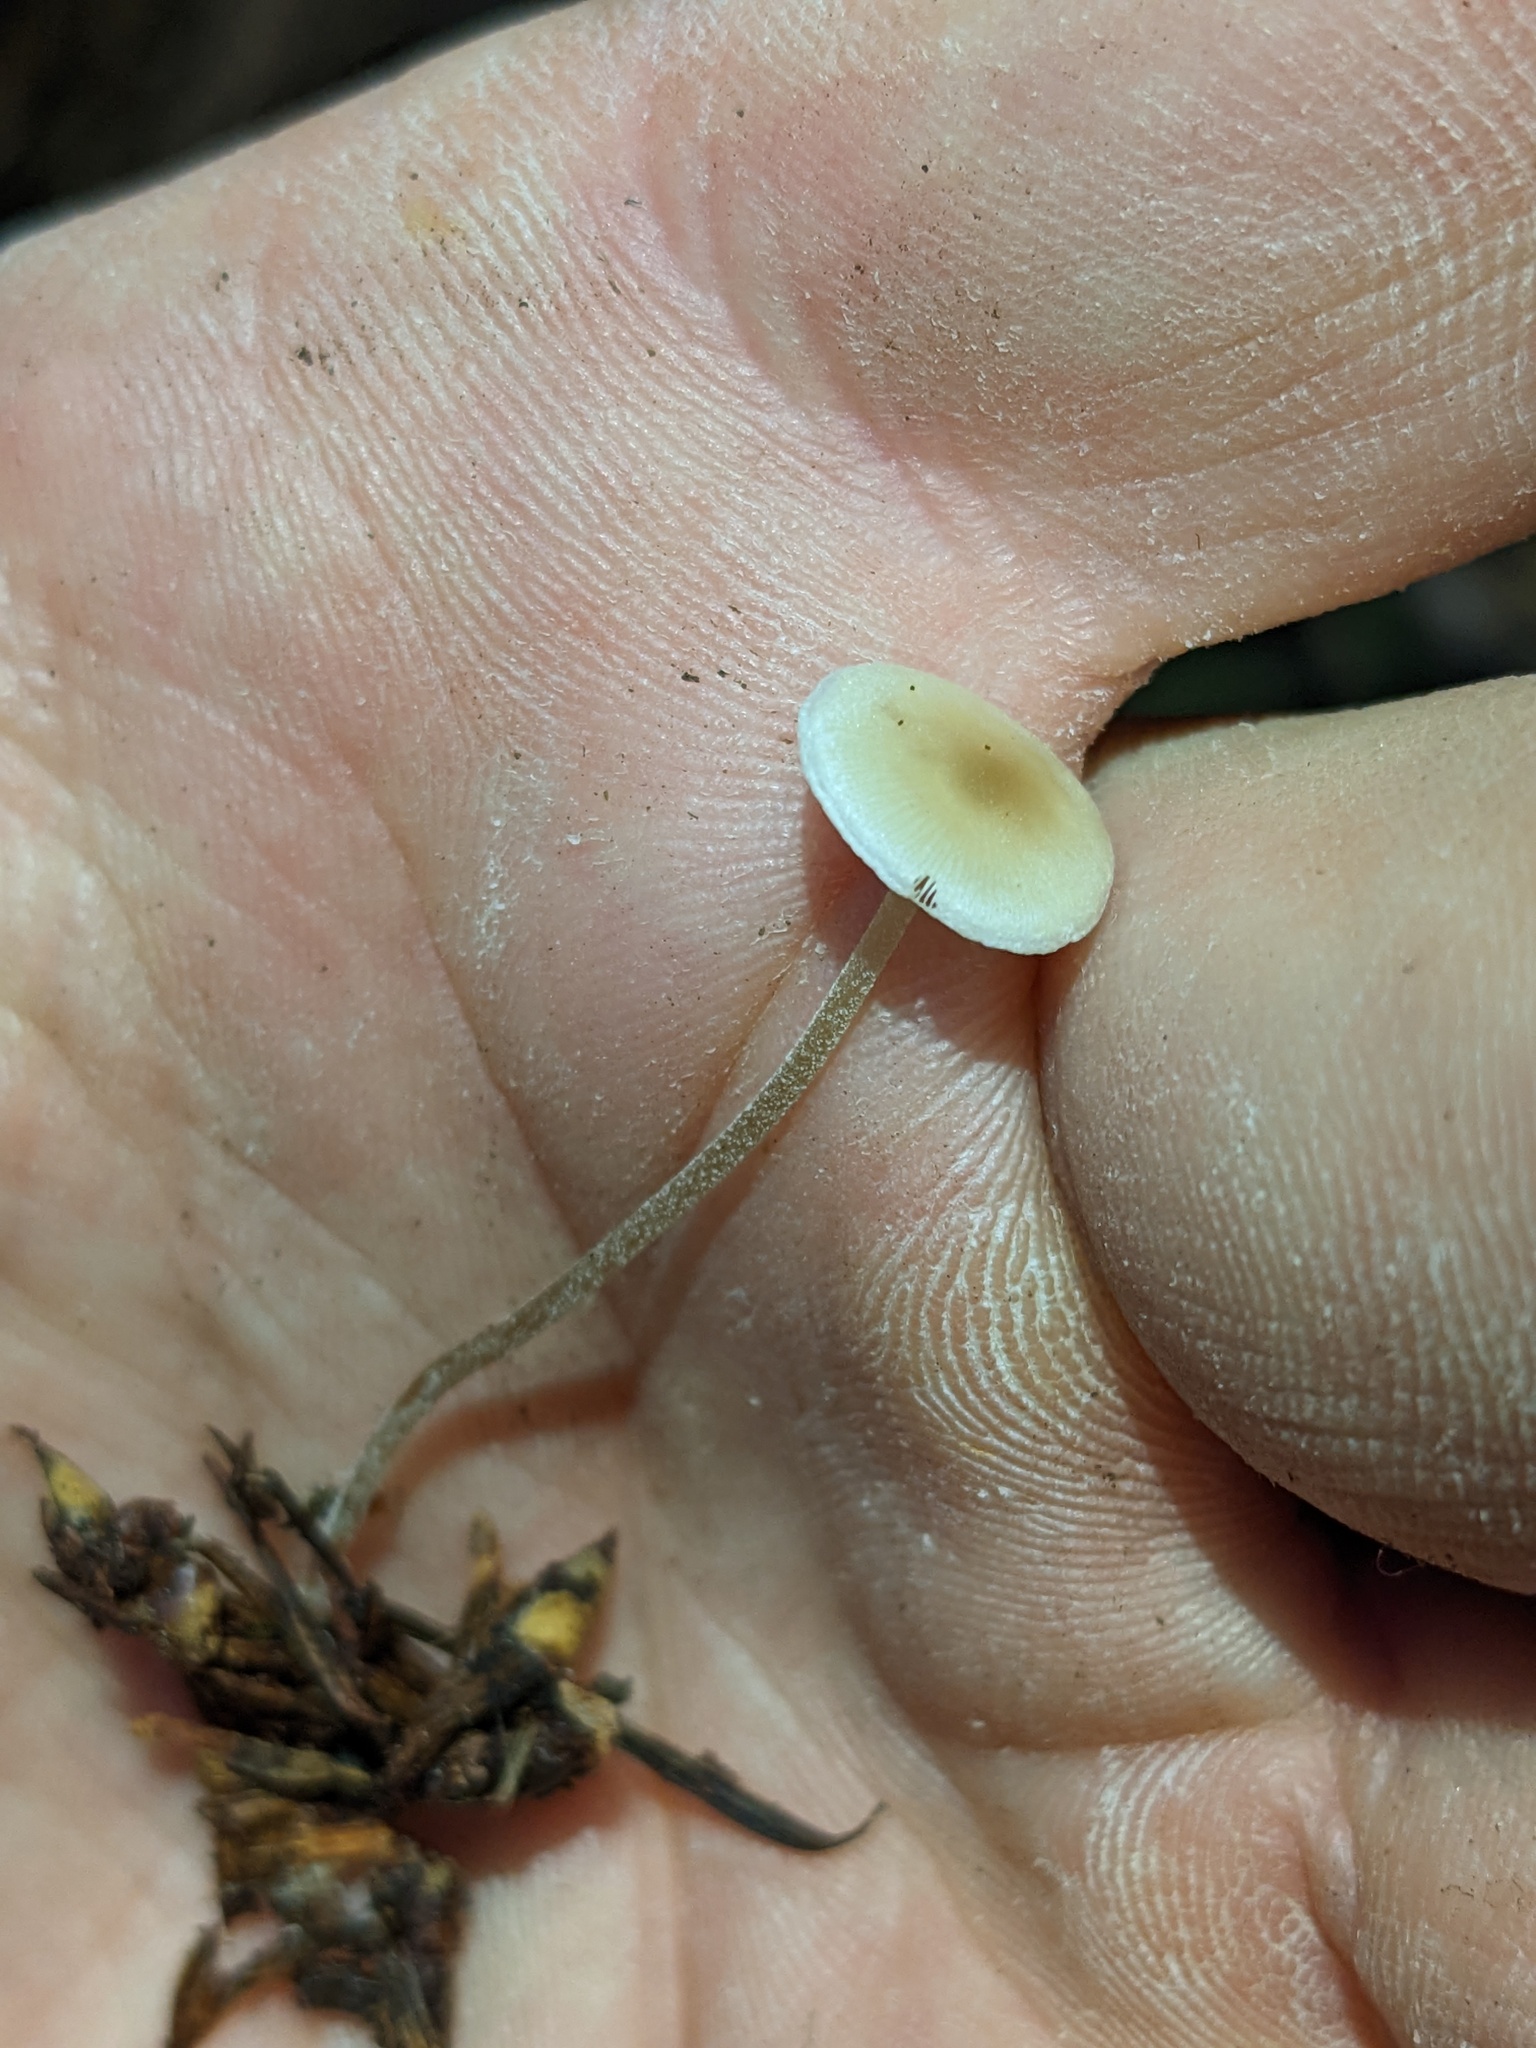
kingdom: Fungi
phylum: Basidiomycota
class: Agaricomycetes
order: Agaricales
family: Marasmiaceae
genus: Baeospora
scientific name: Baeospora myosura
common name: Conifercone cap
